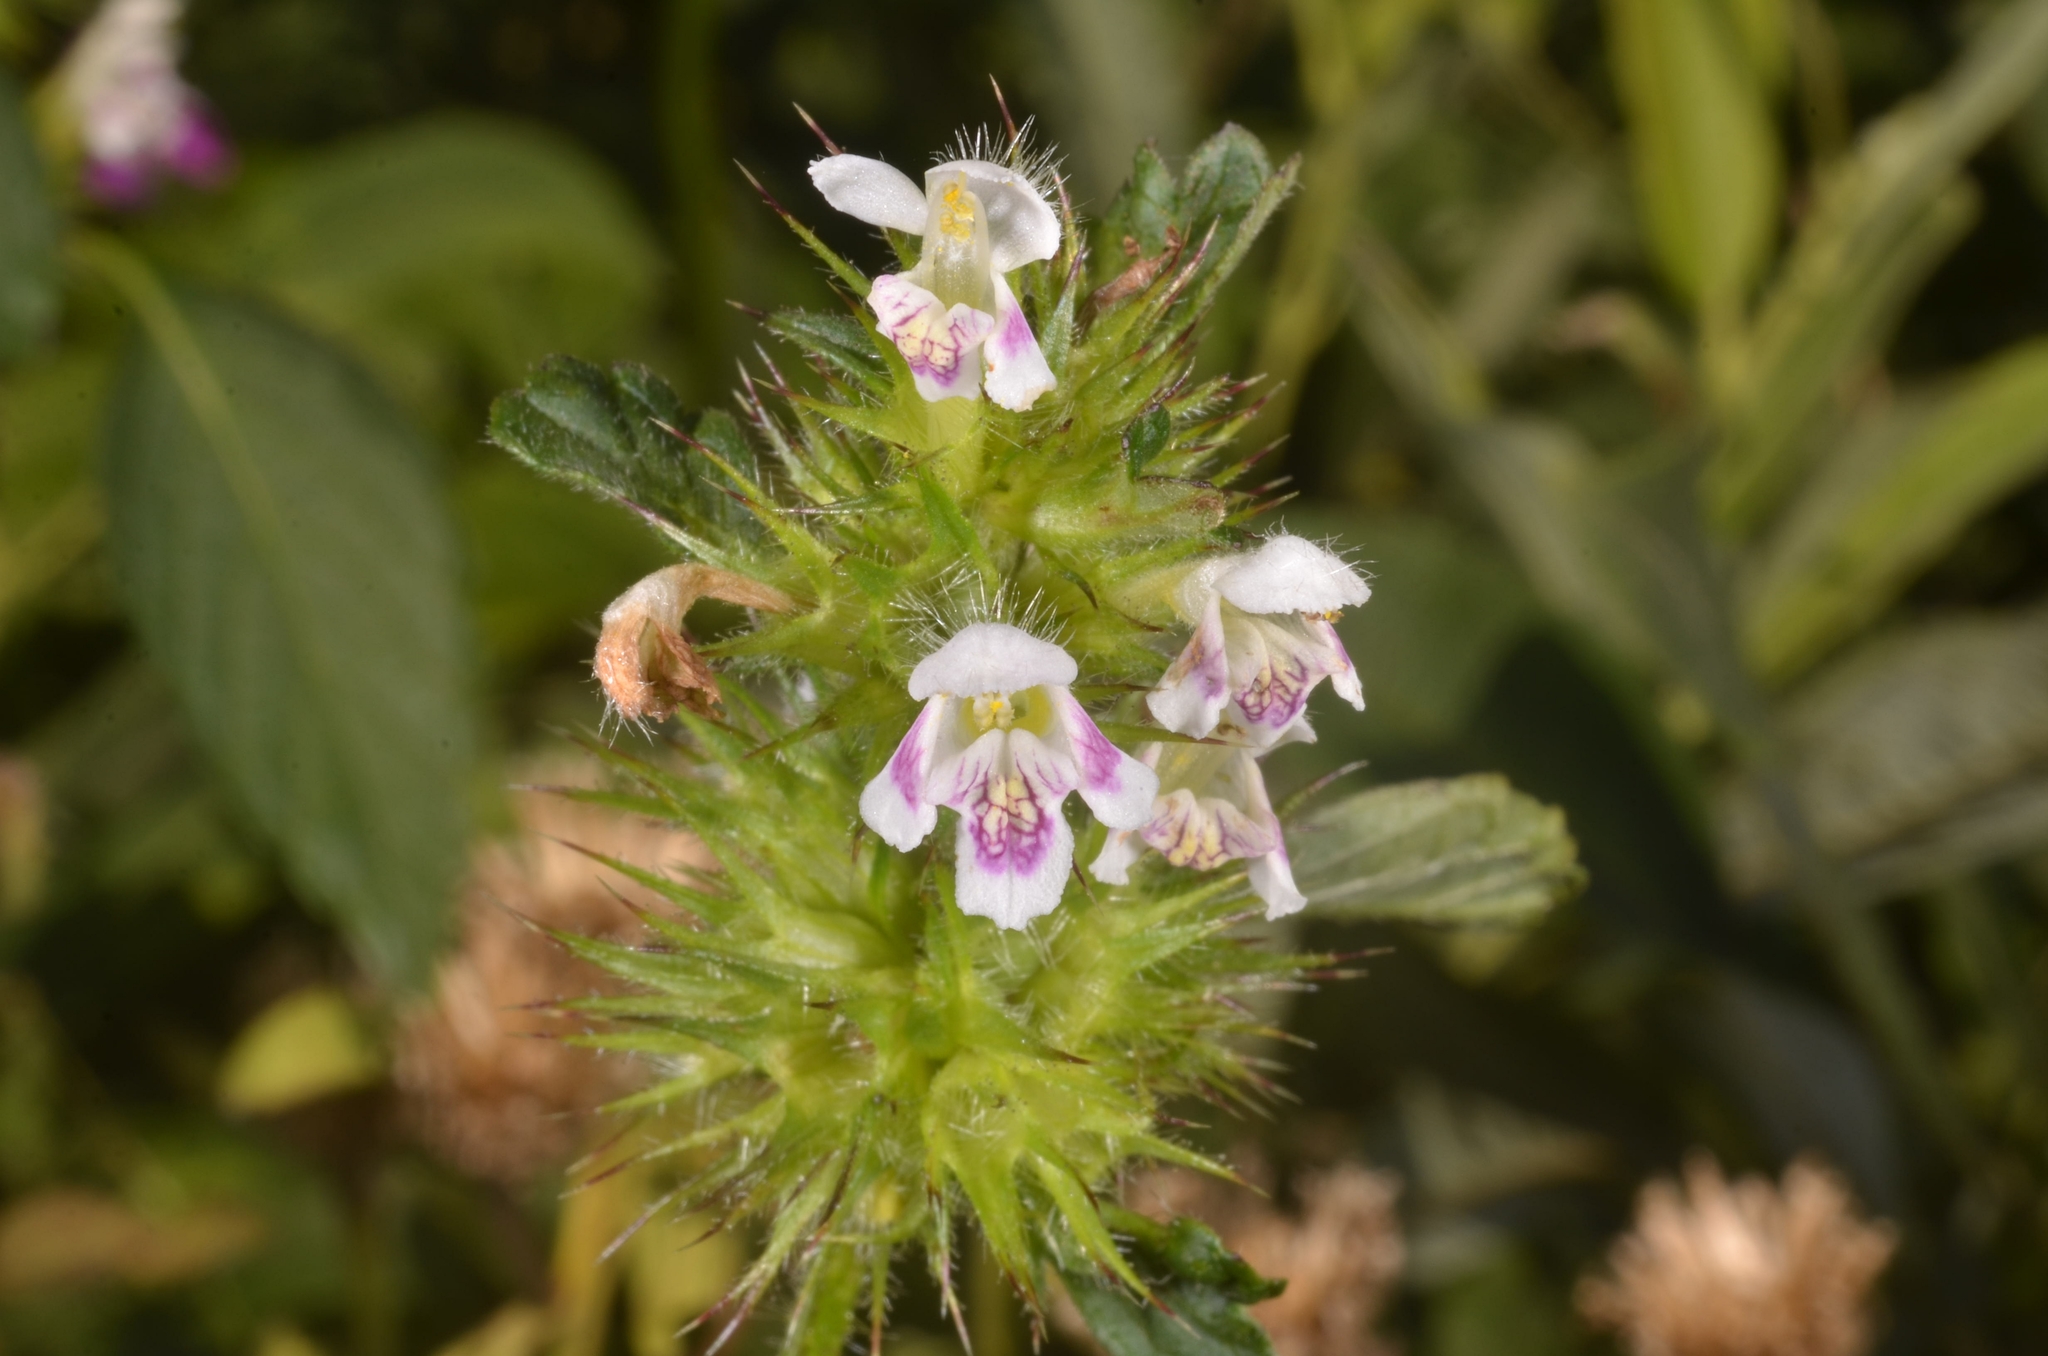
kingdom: Plantae
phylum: Tracheophyta
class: Magnoliopsida
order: Lamiales
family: Lamiaceae
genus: Galeopsis
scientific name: Galeopsis tetrahit
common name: Common hemp-nettle
